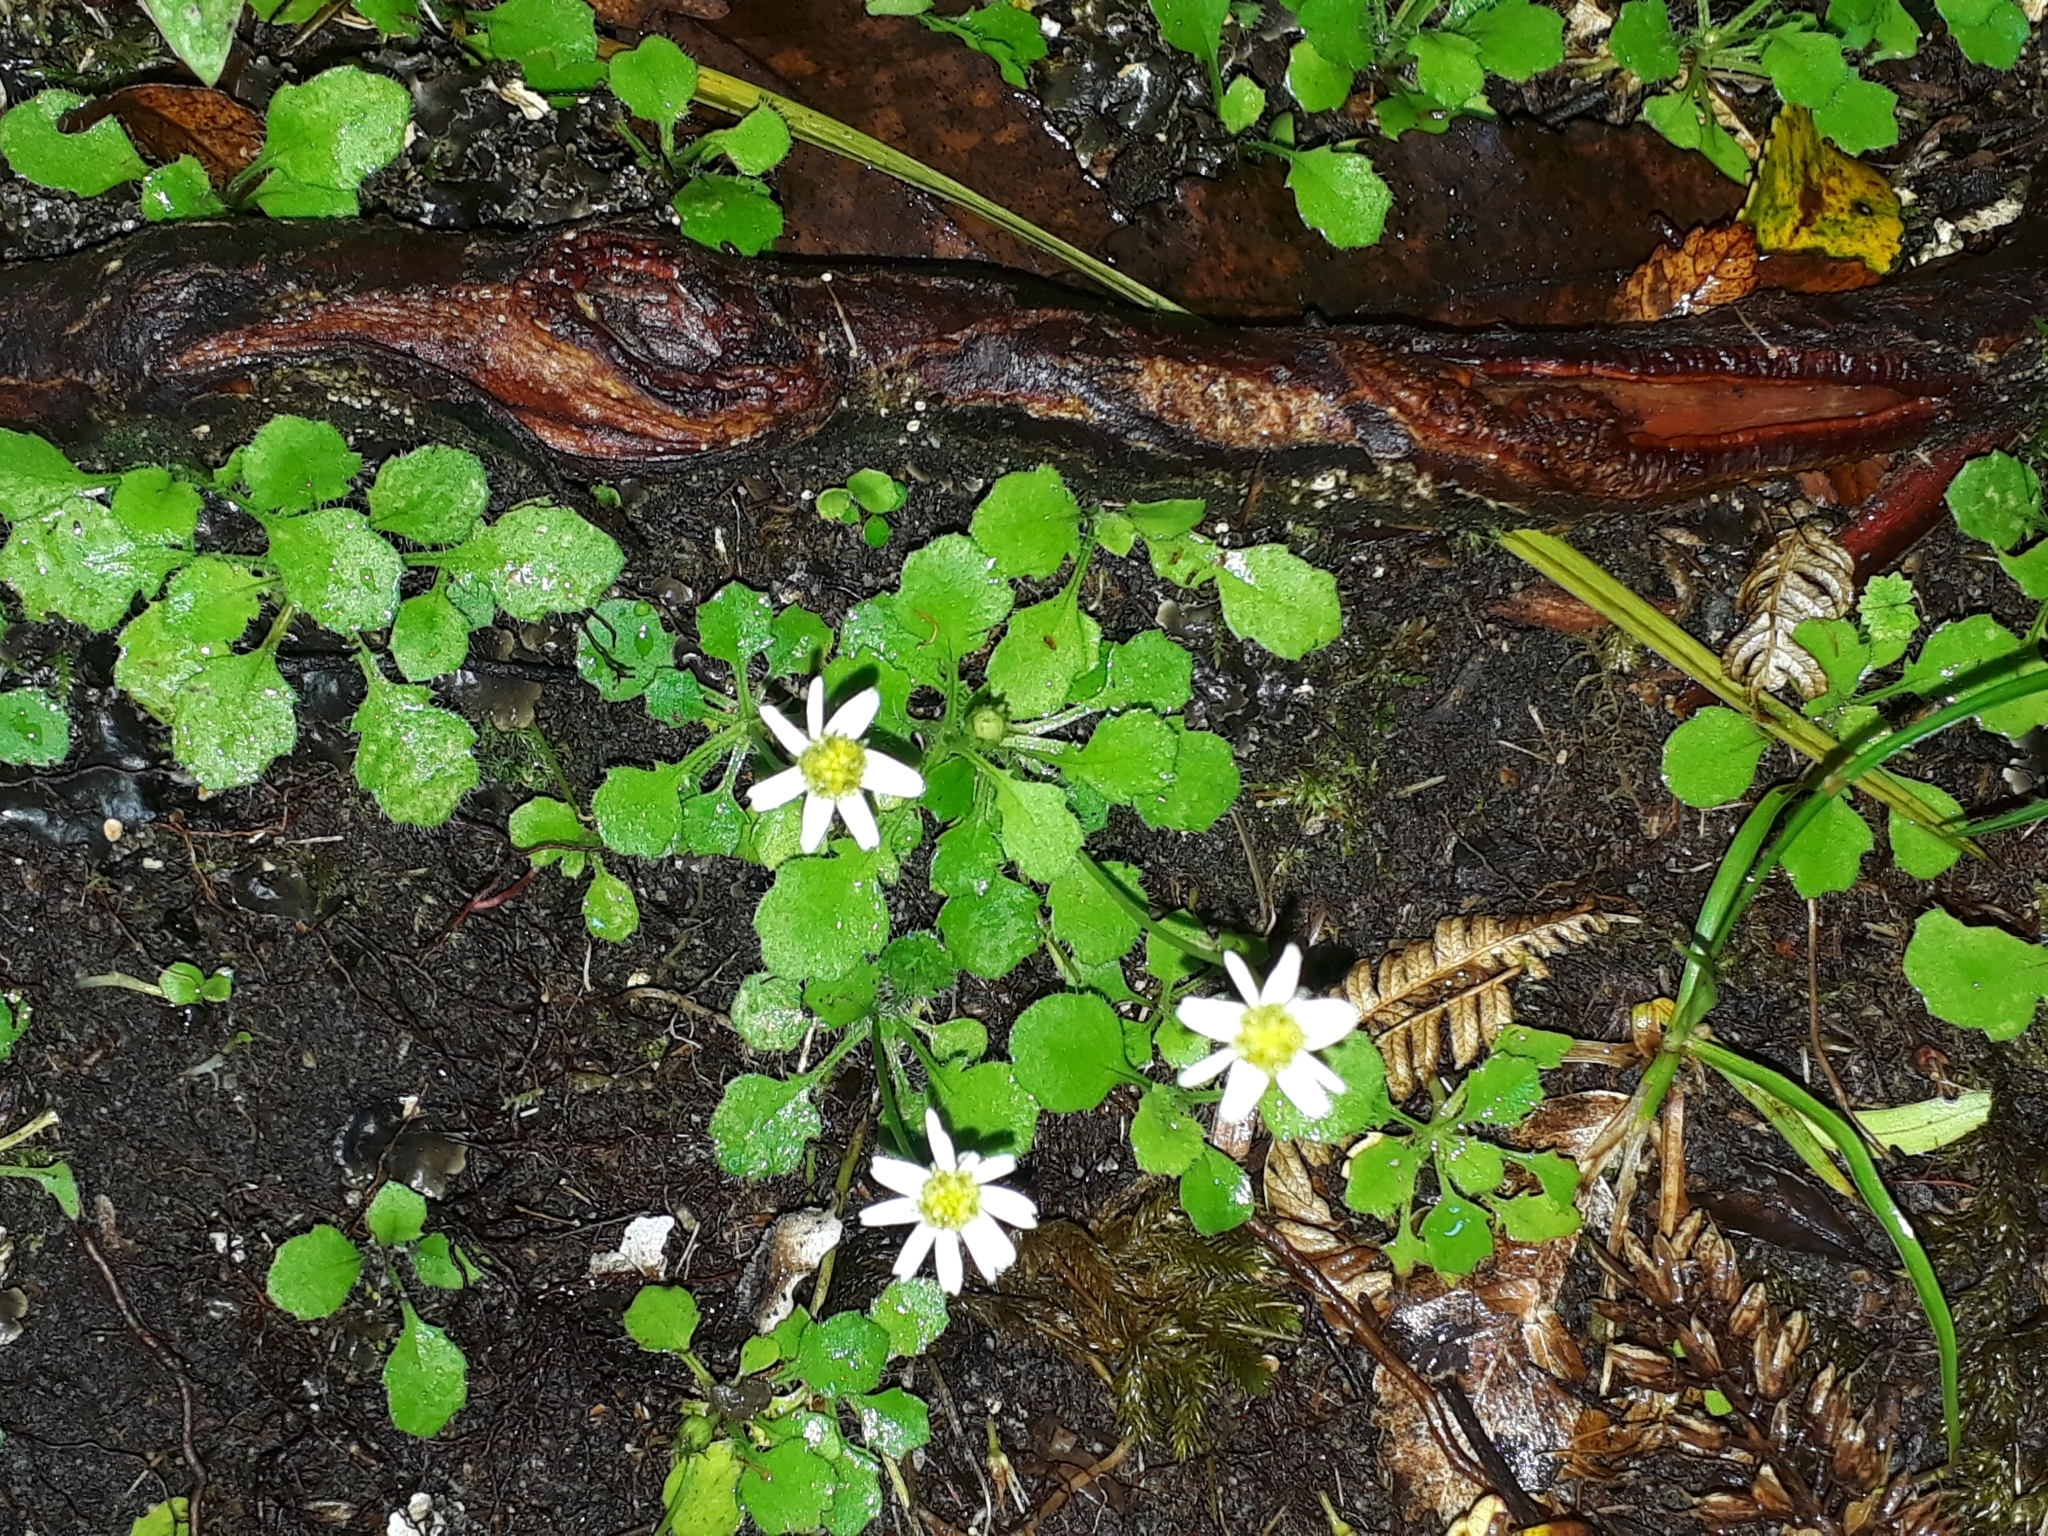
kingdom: Plantae
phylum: Tracheophyta
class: Magnoliopsida
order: Asterales
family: Asteraceae
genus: Lagenophora
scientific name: Lagenophora pumila
